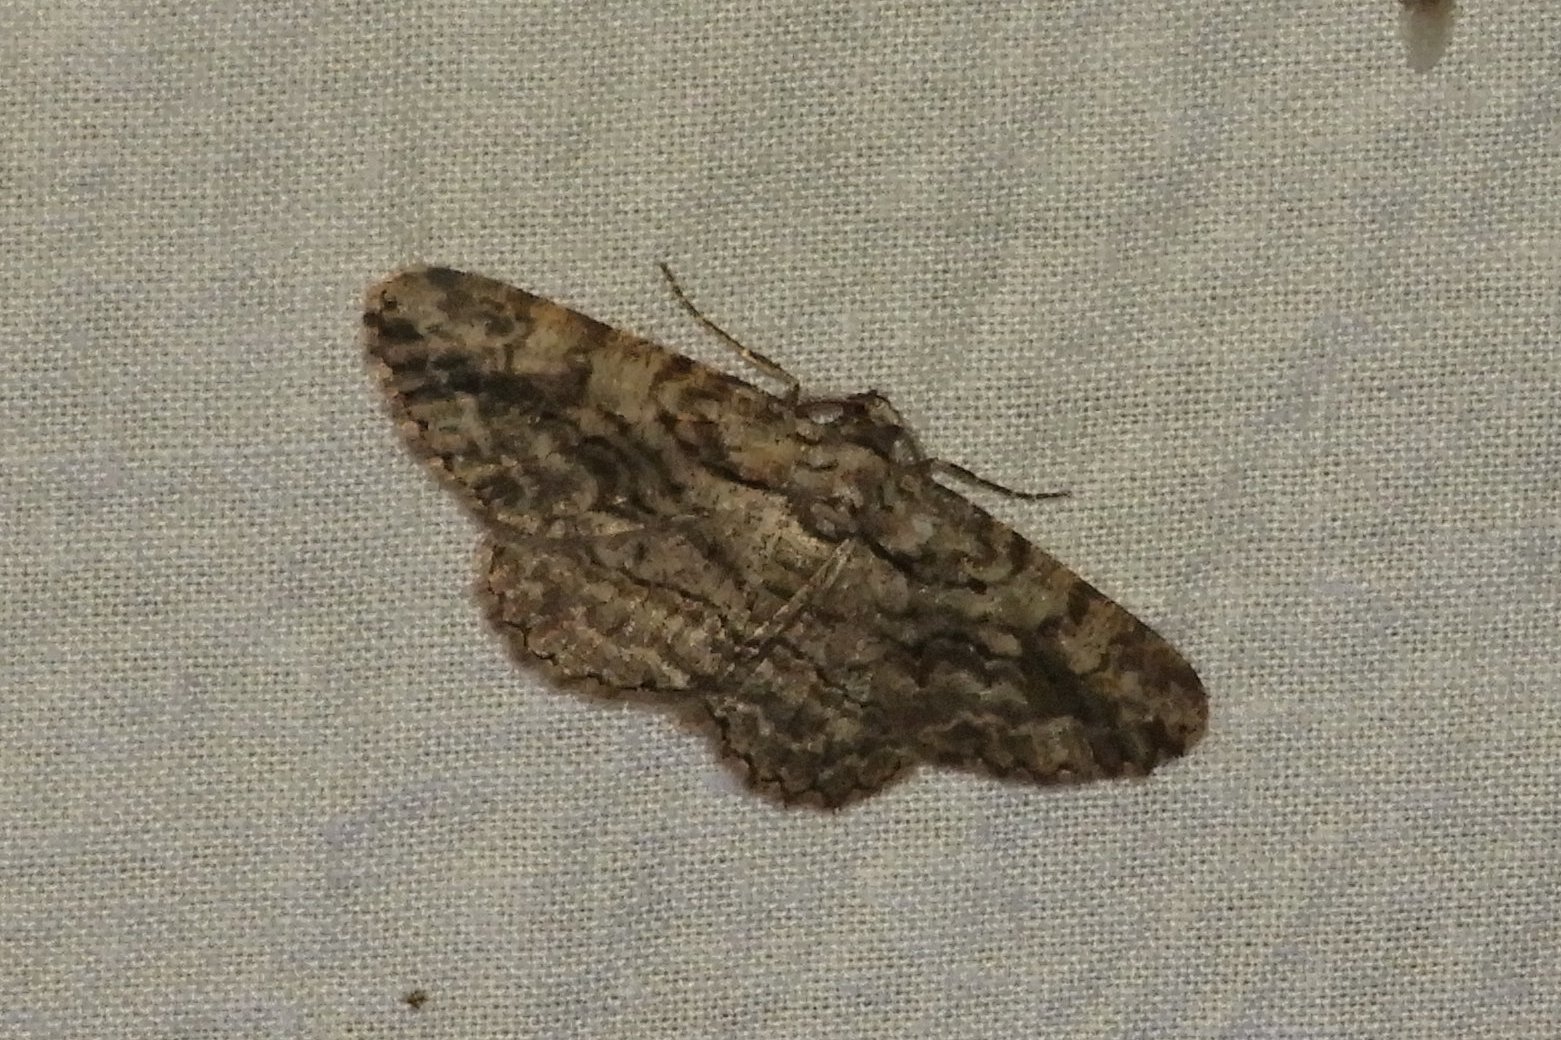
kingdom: Animalia
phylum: Arthropoda
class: Insecta
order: Lepidoptera
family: Geometridae
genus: Anavitrinella
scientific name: Anavitrinella pampinaria
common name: Common gray
